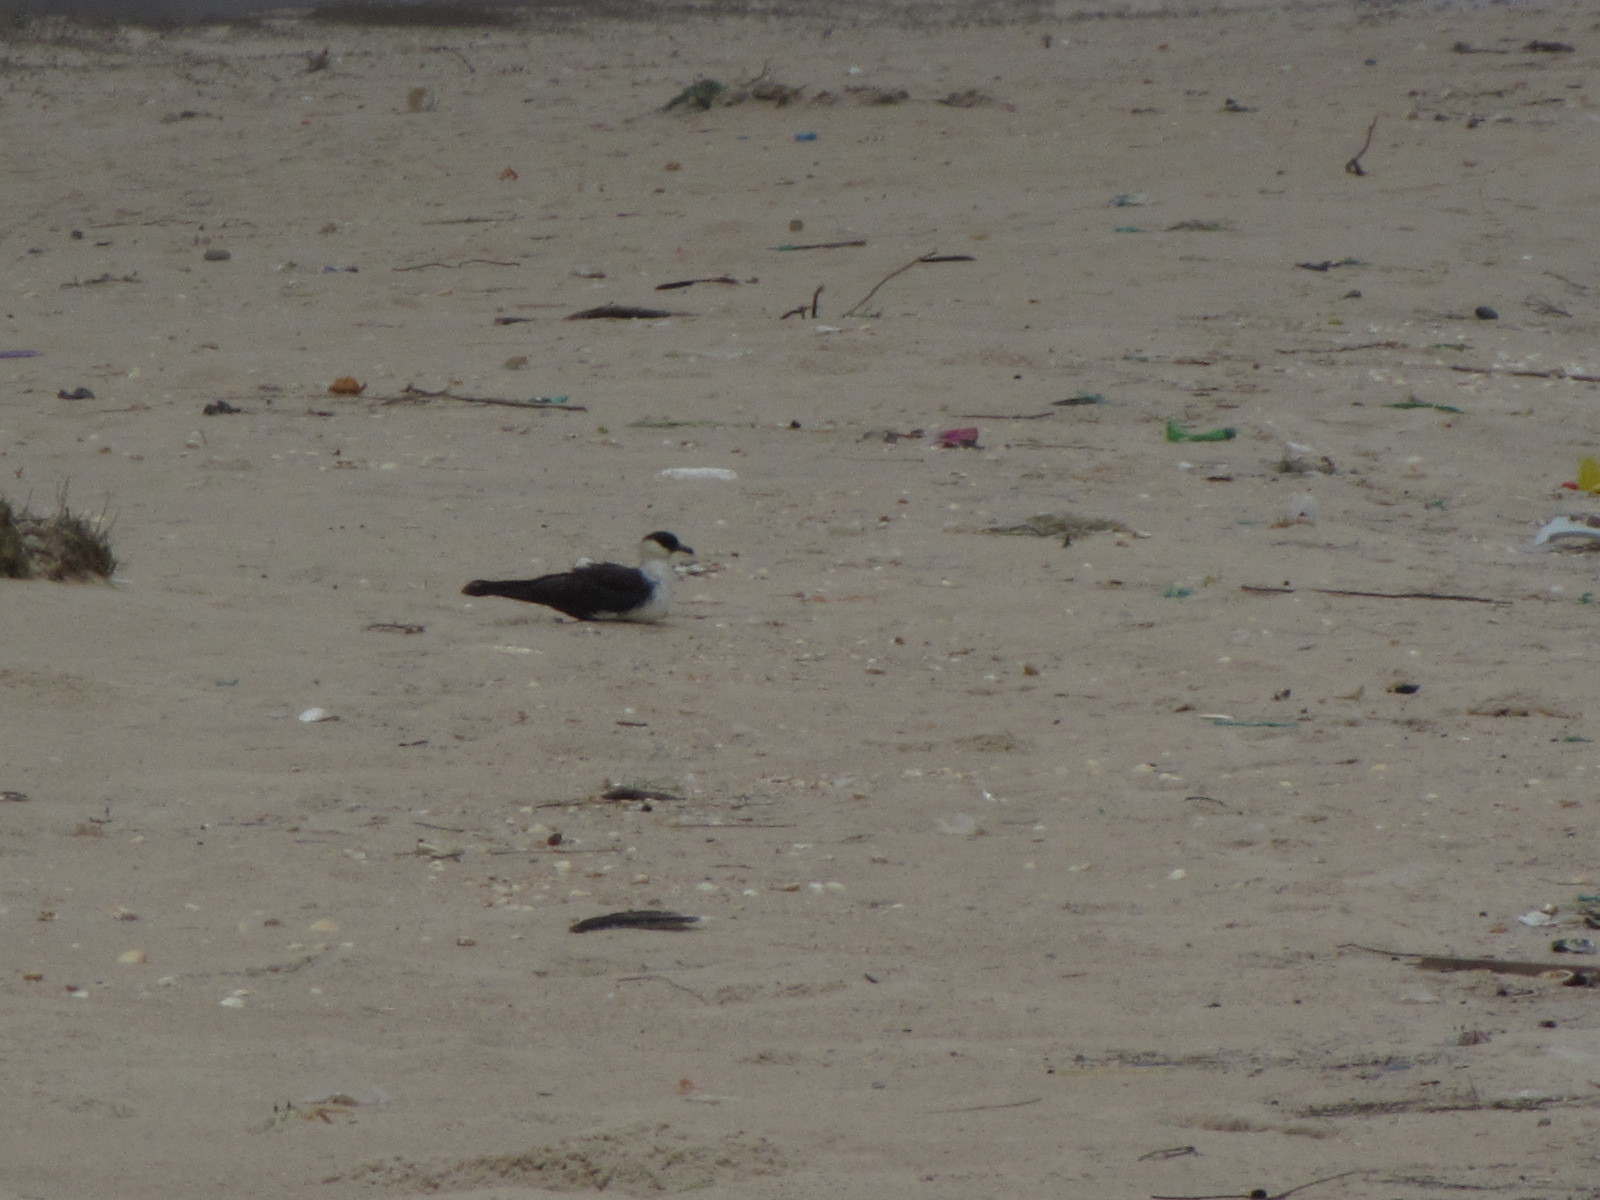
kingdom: Animalia
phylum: Chordata
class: Aves
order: Charadriiformes
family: Stercorariidae
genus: Stercorarius
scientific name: Stercorarius pomarinus
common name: Pomarine jaeger
